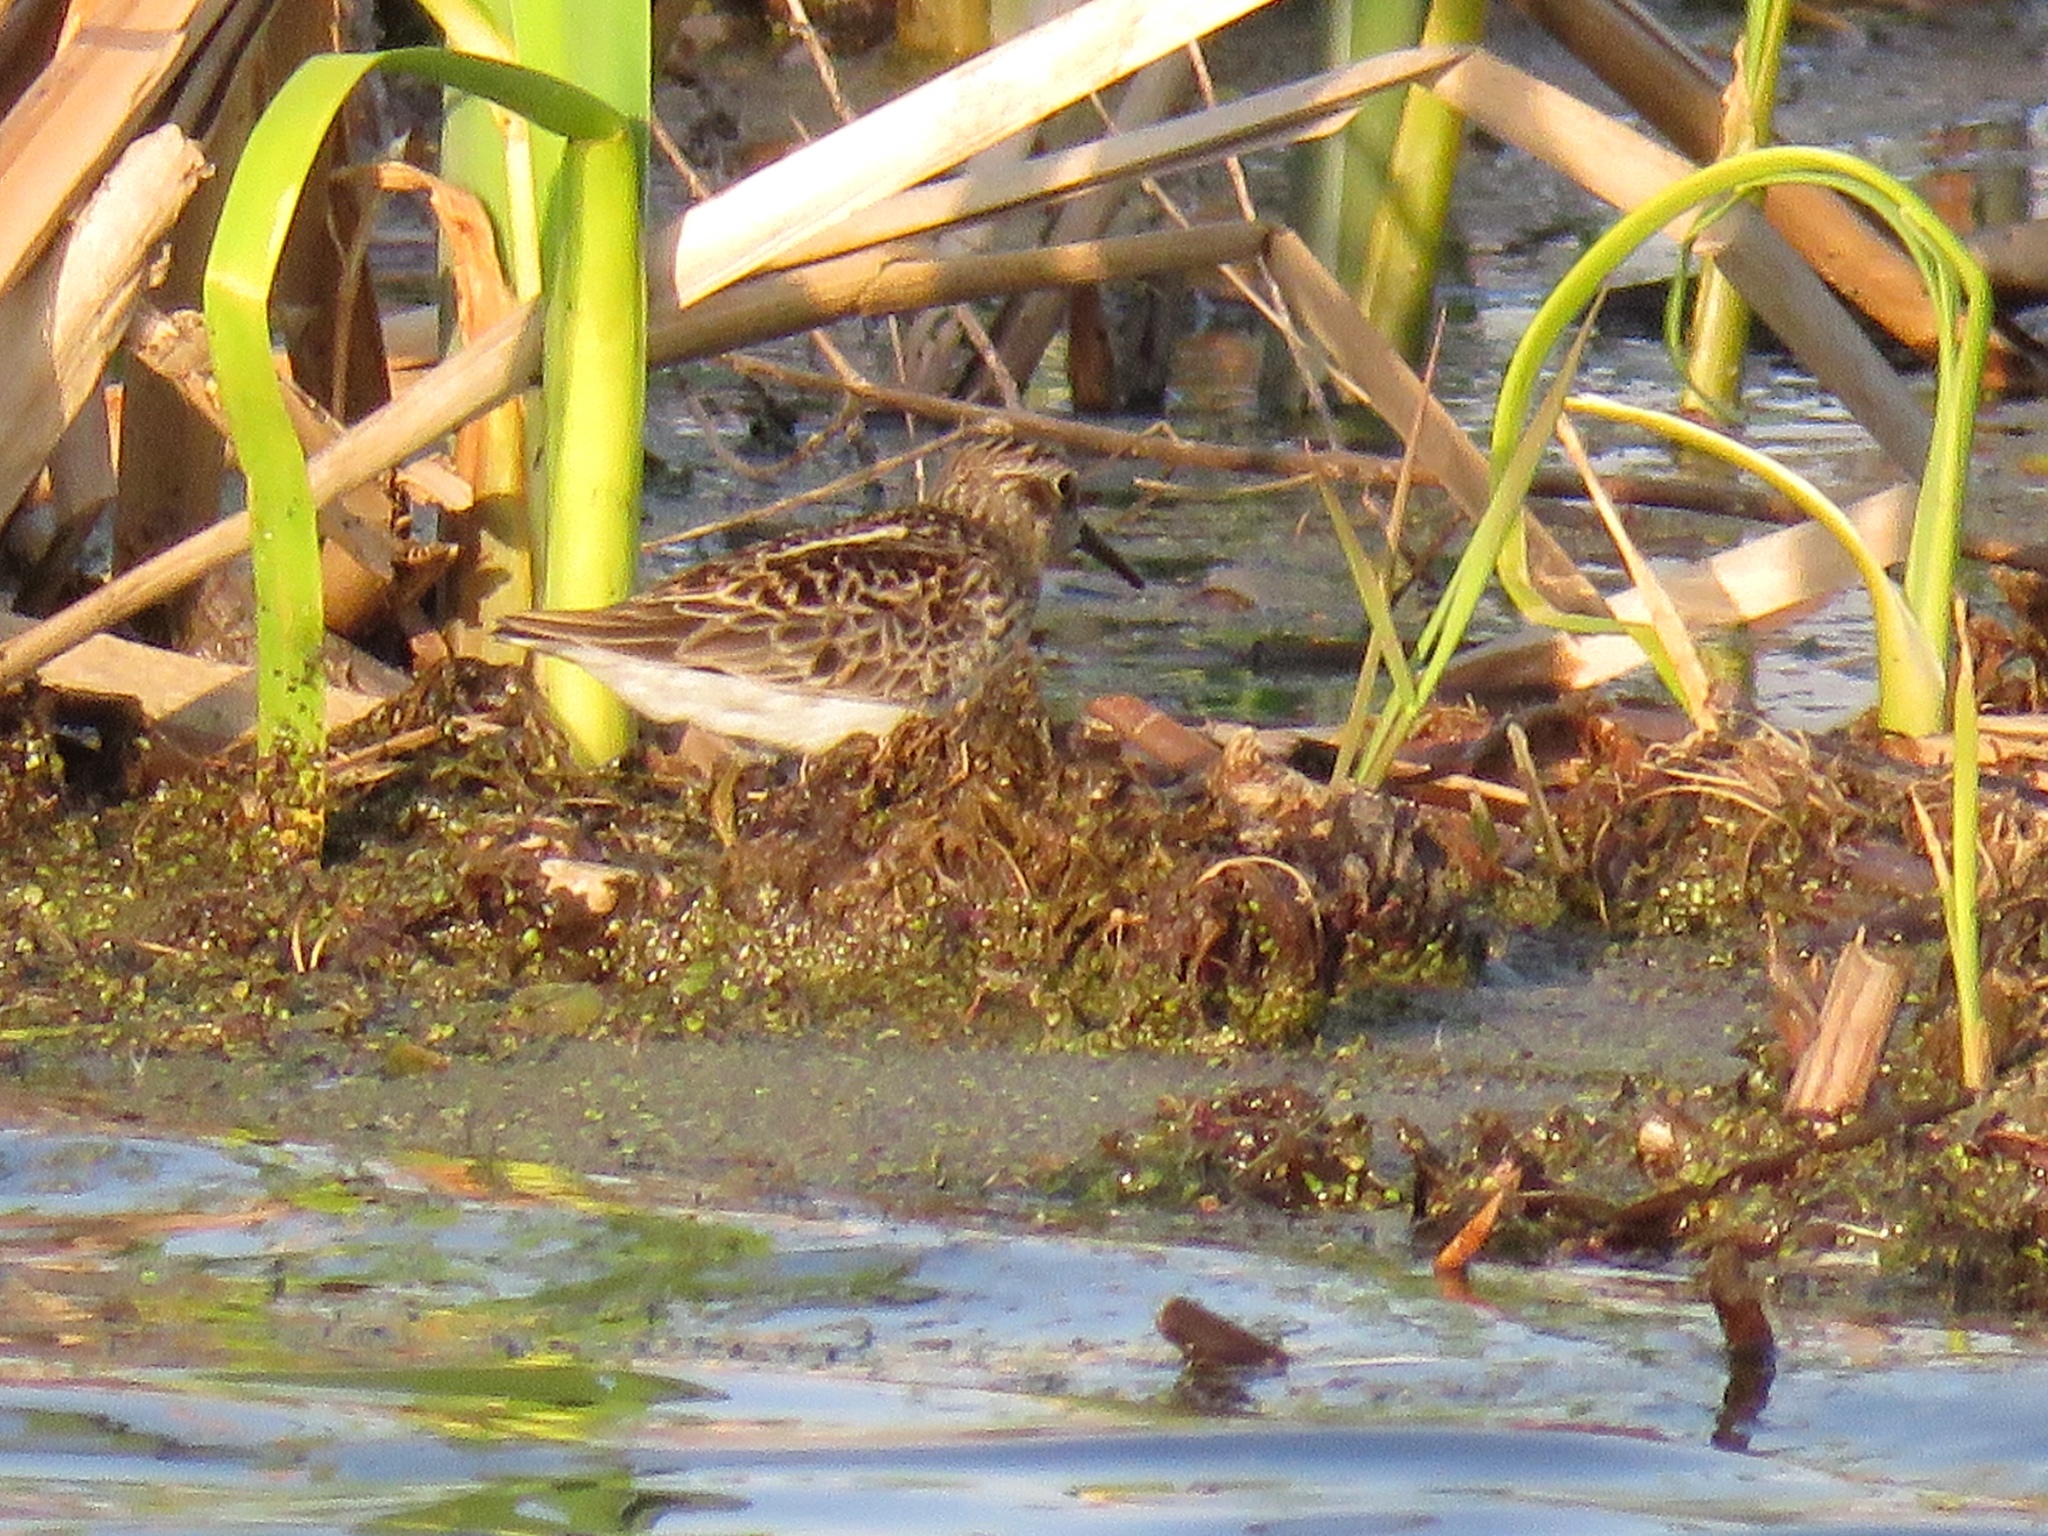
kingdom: Animalia
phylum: Chordata
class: Aves
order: Charadriiformes
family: Scolopacidae
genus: Calidris
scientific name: Calidris minutilla
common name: Least sandpiper
